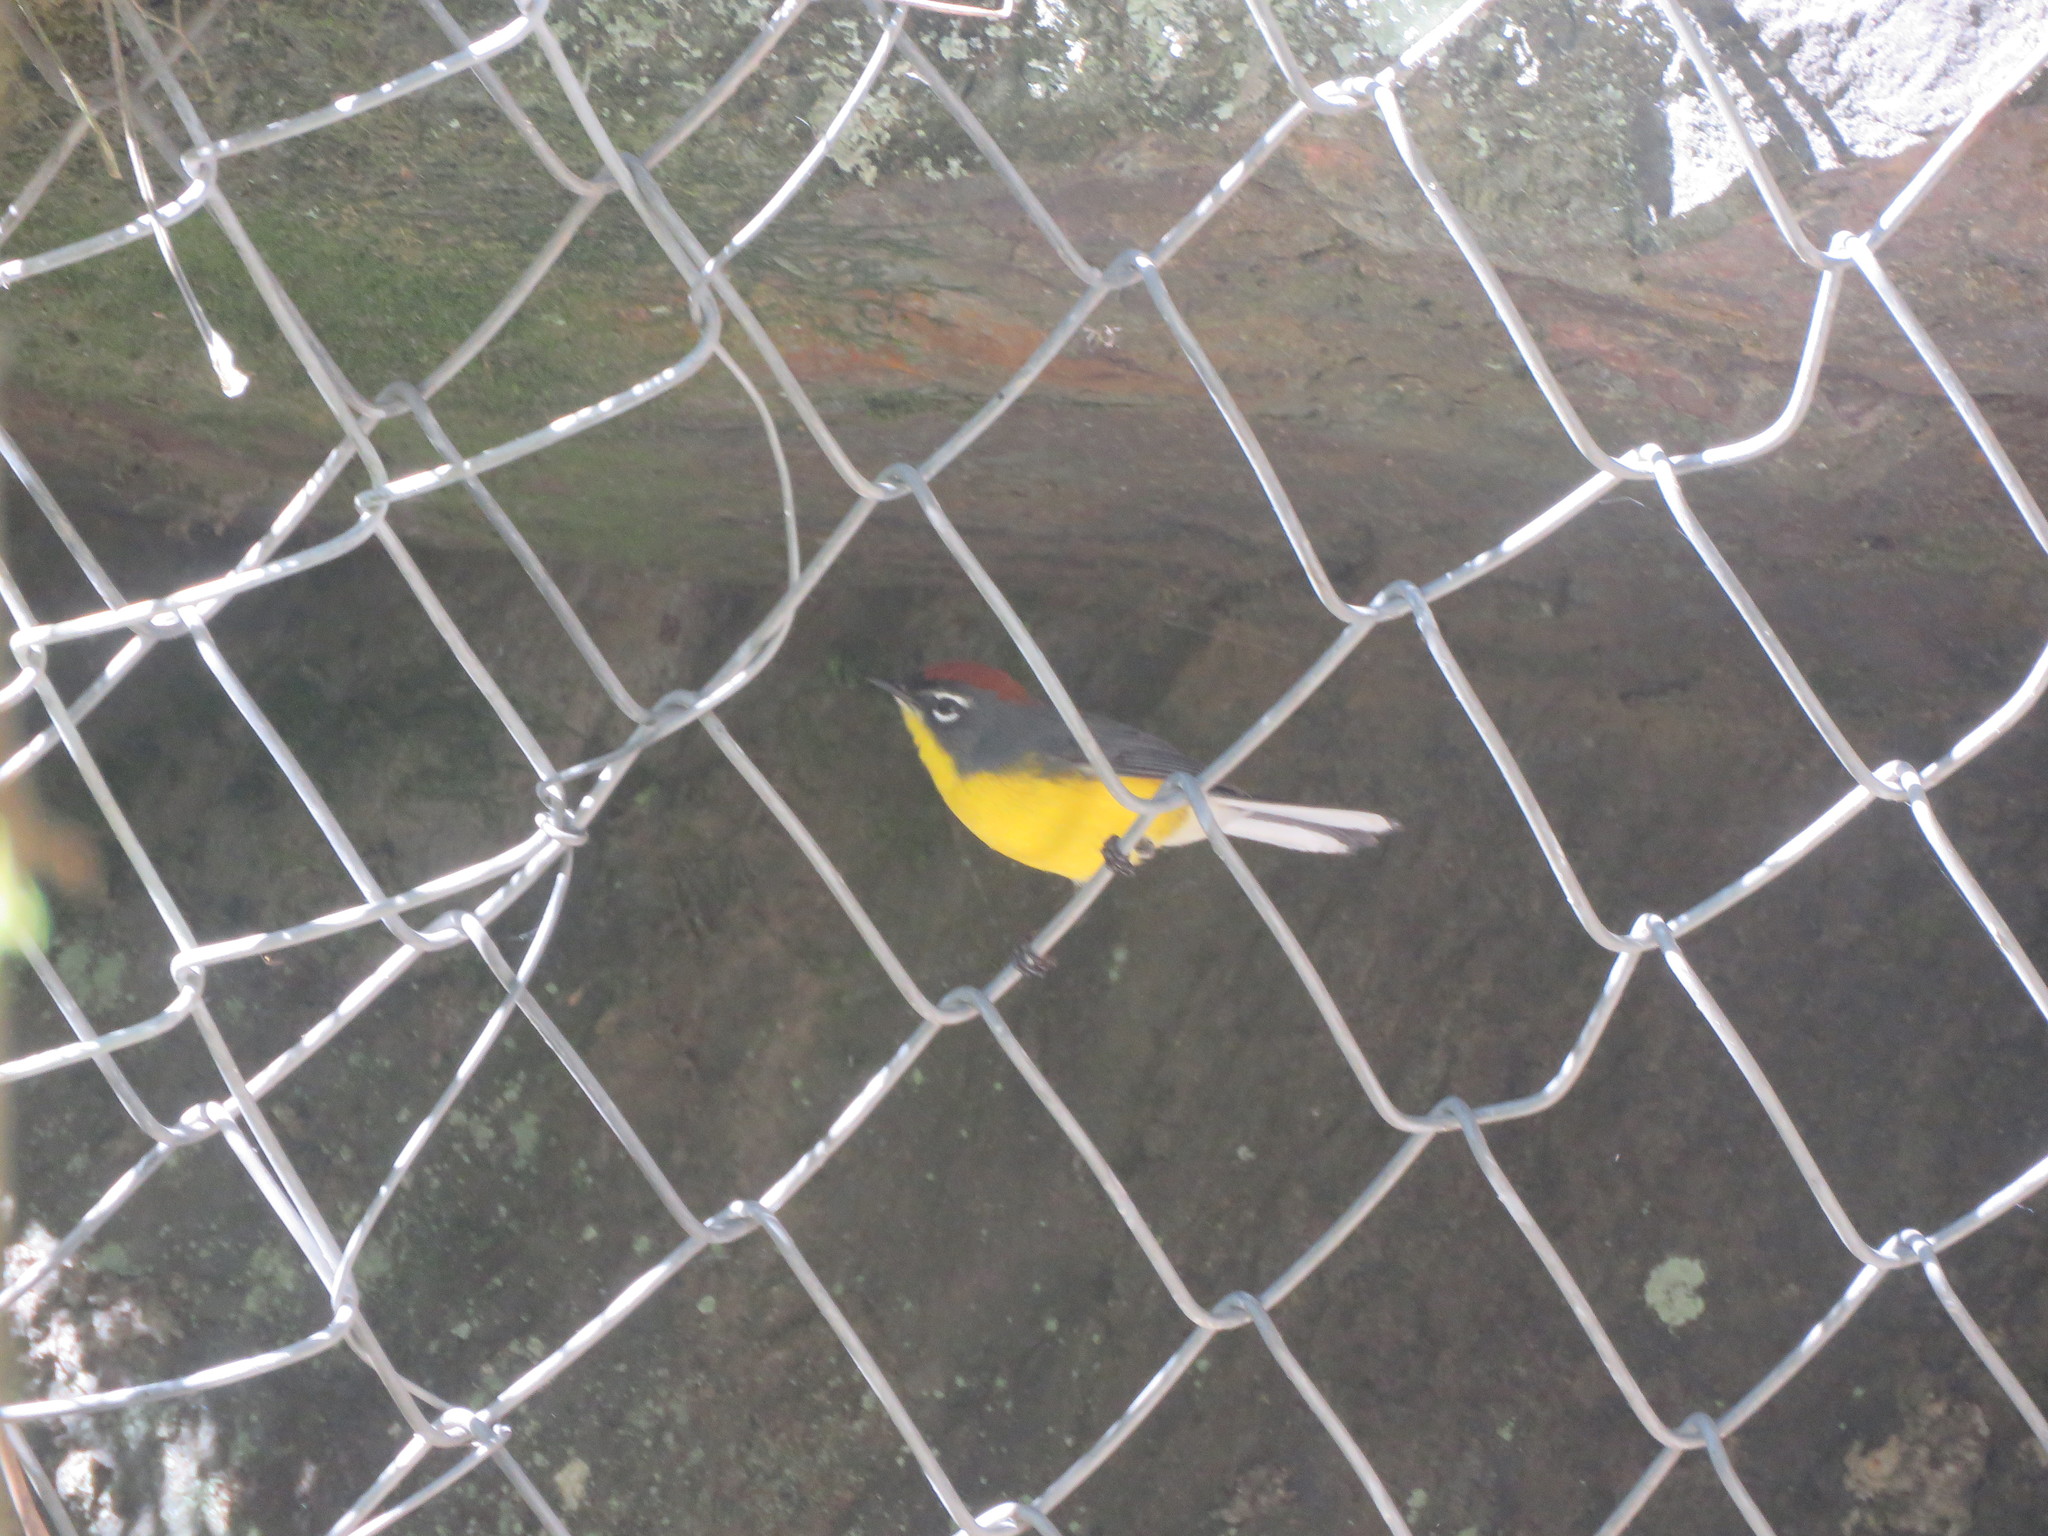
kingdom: Animalia
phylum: Chordata
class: Aves
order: Passeriformes
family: Parulidae
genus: Myioborus
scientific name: Myioborus brunniceps
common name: Brown-capped whitestart
